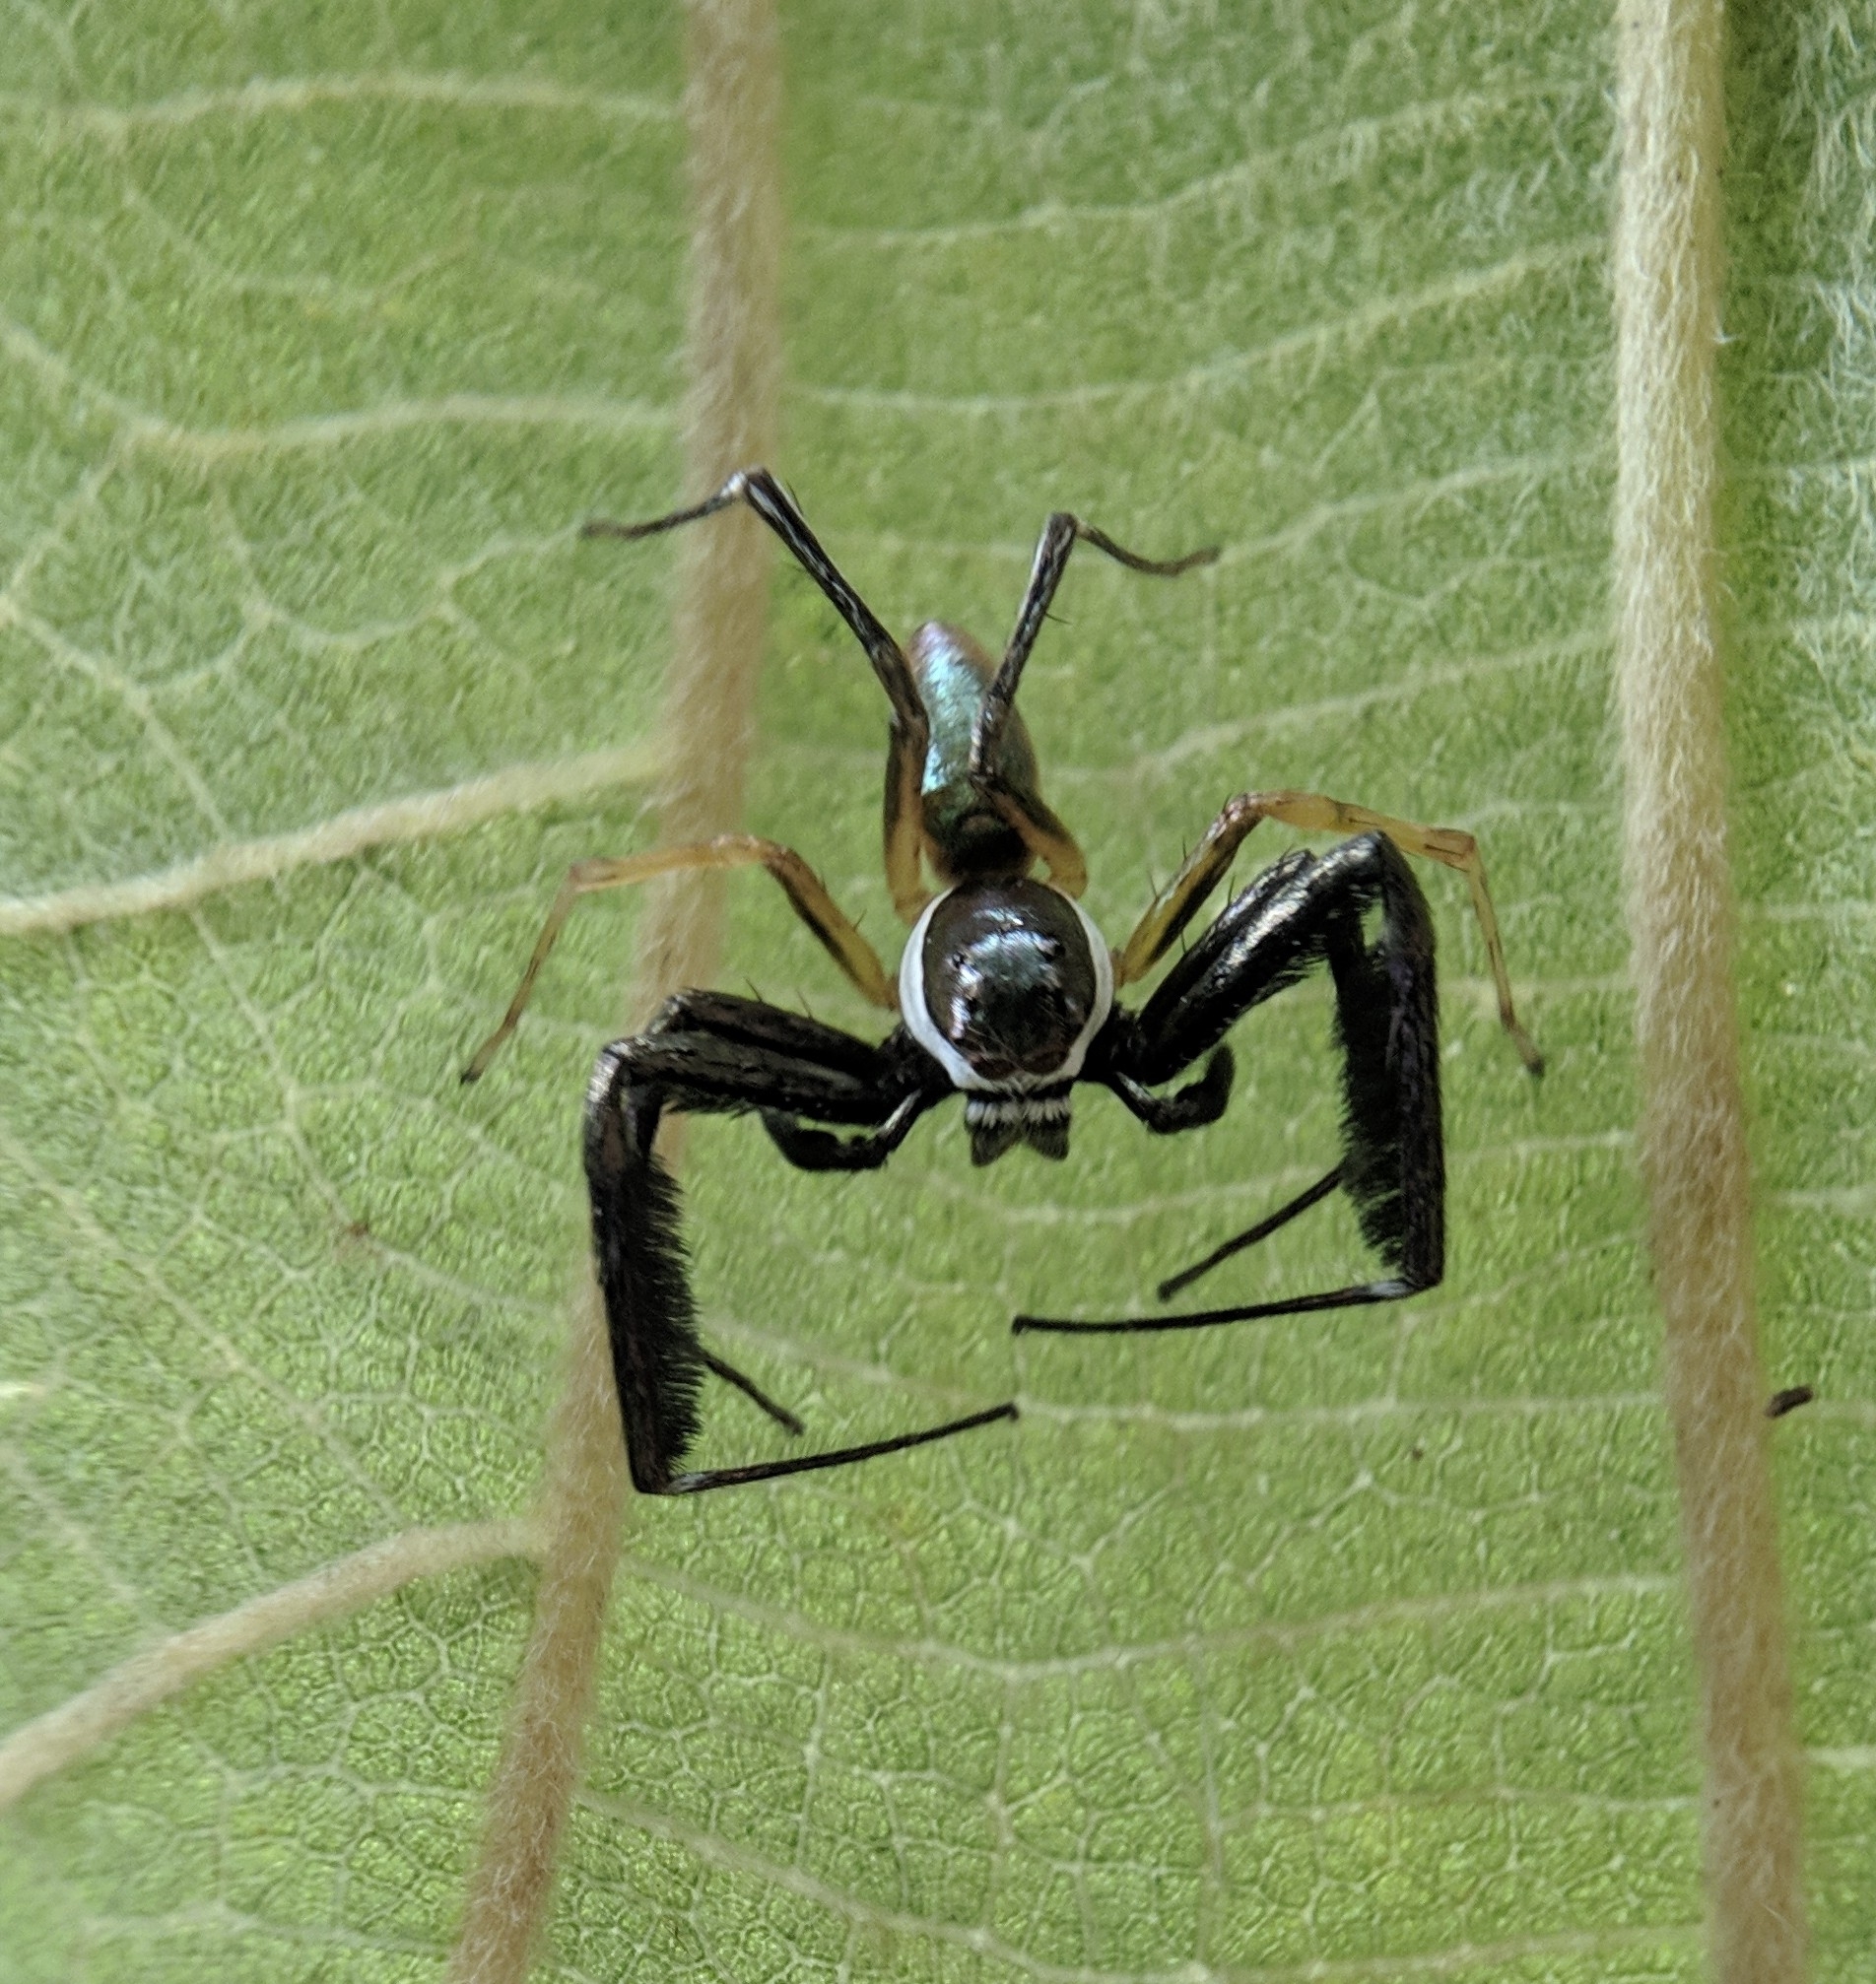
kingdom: Animalia
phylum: Arthropoda
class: Arachnida
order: Araneae
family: Salticidae
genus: Brettus
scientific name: Brettus cingulatus
